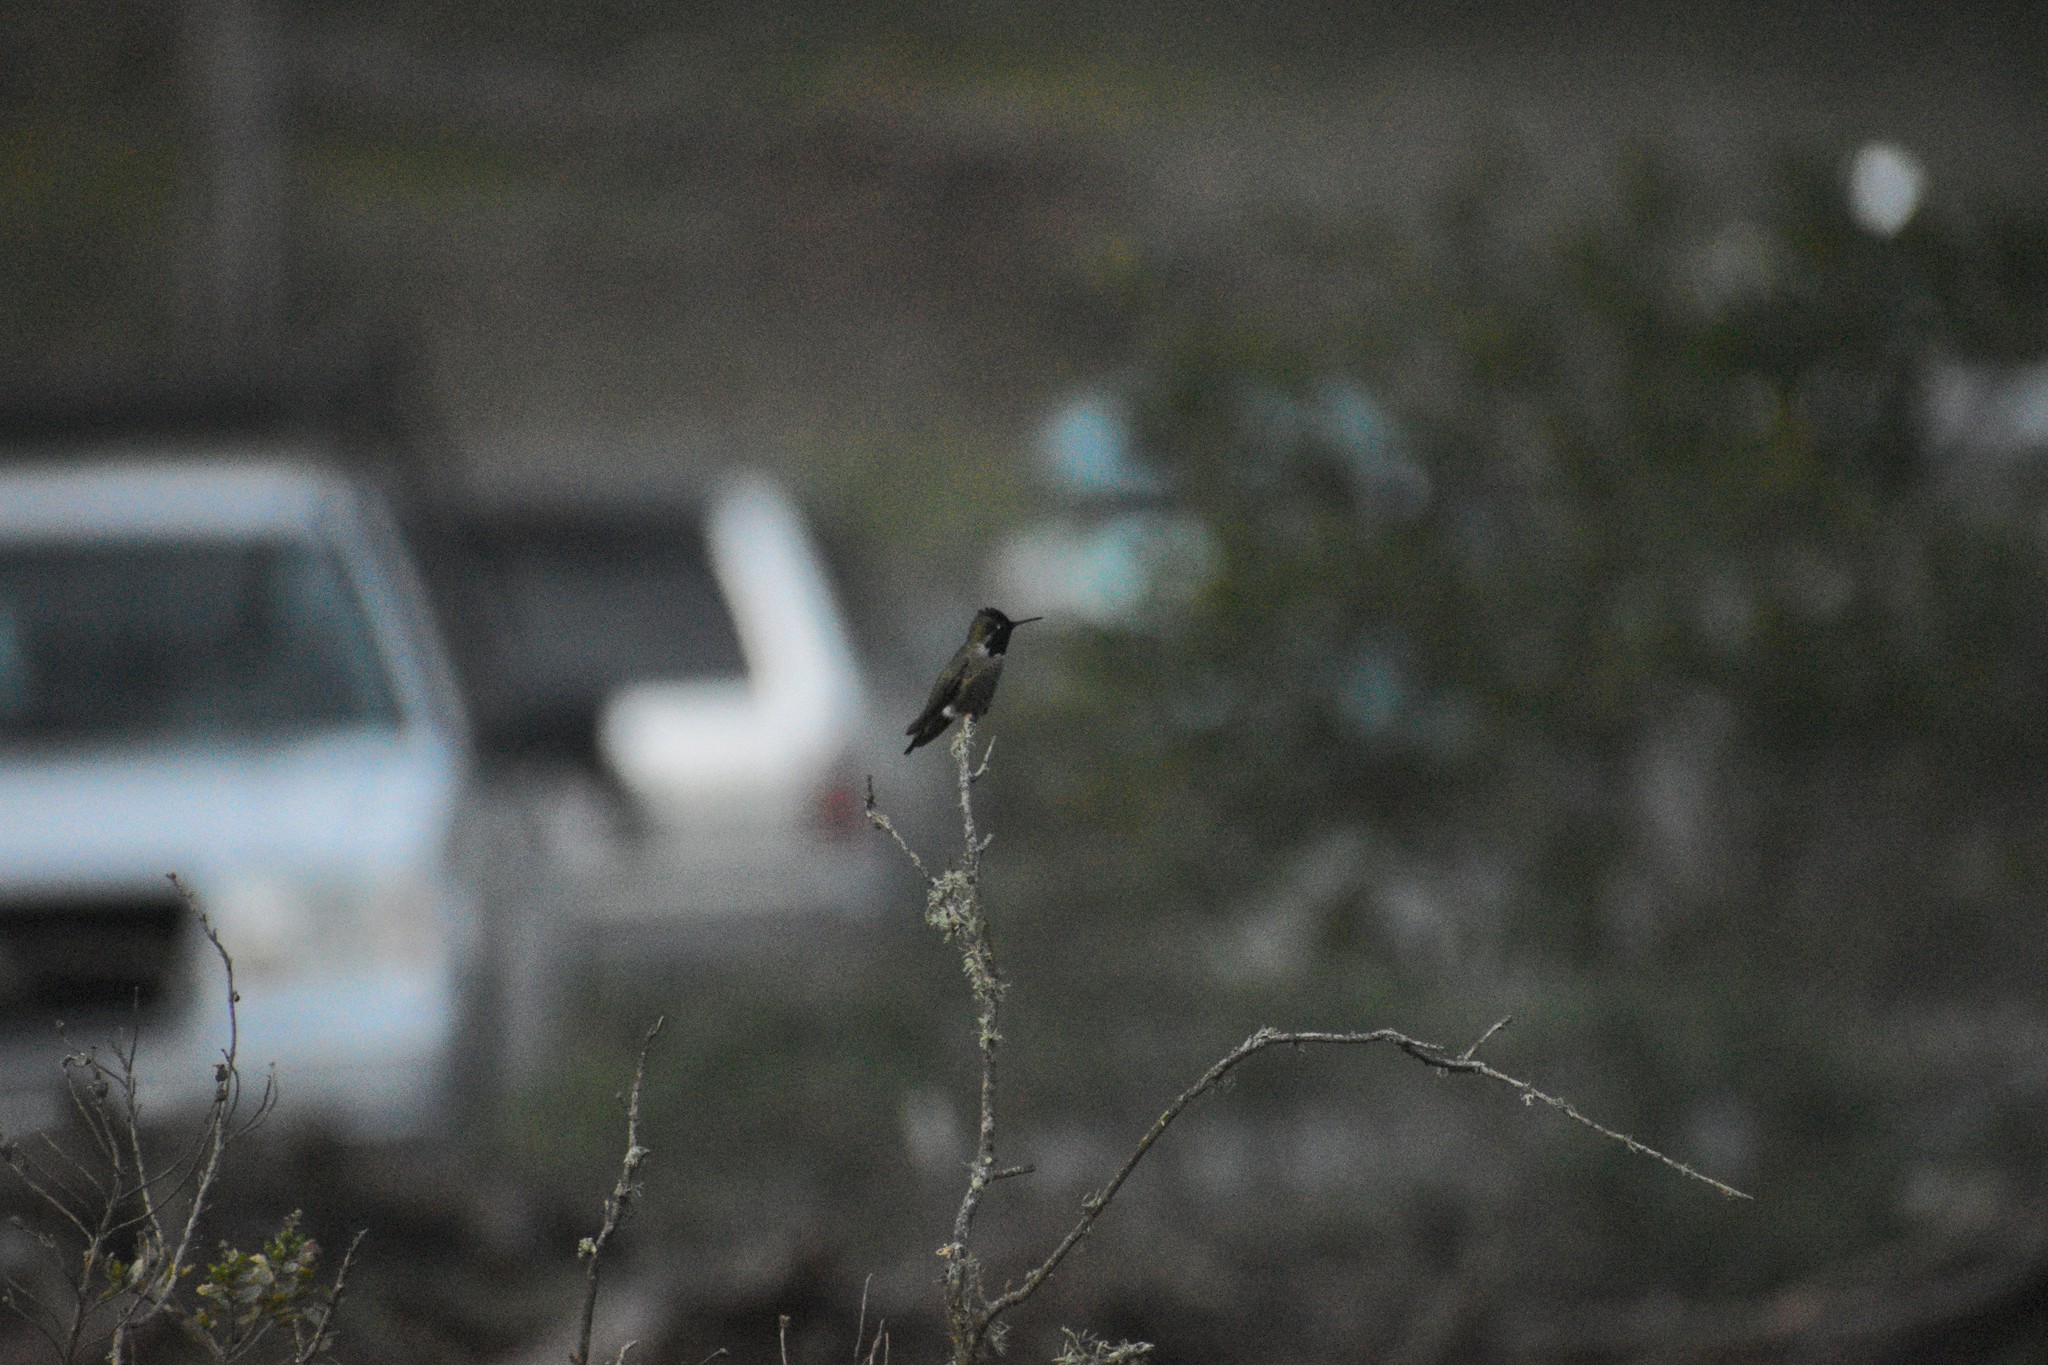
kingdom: Animalia
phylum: Chordata
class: Aves
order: Apodiformes
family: Trochilidae
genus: Calypte
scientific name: Calypte anna
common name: Anna's hummingbird
